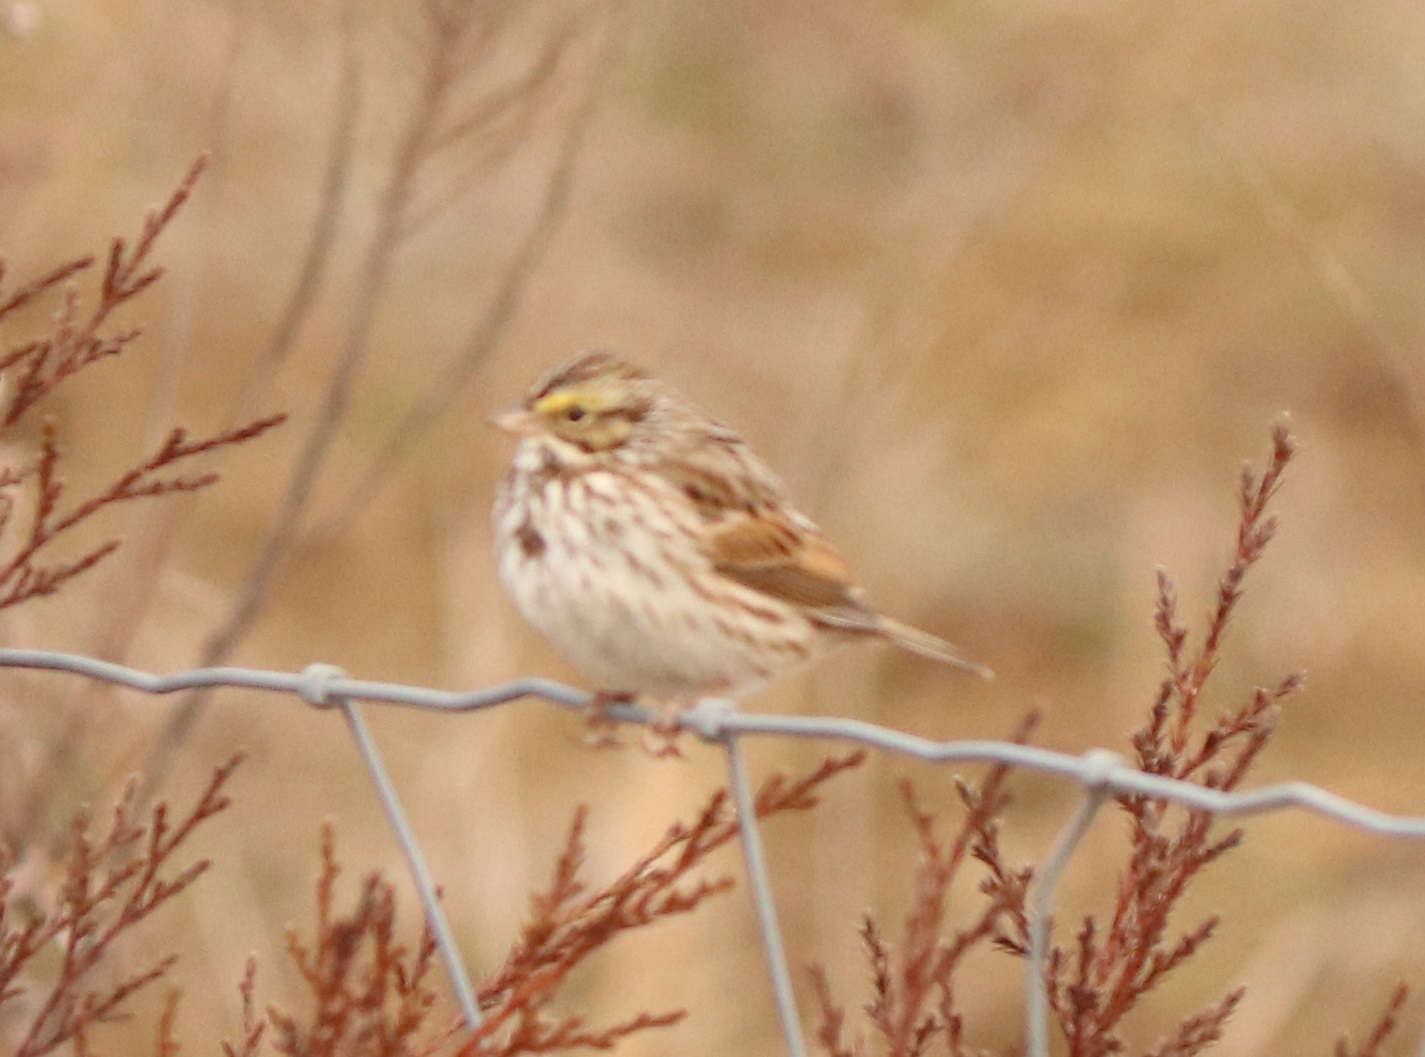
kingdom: Animalia
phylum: Chordata
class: Aves
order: Passeriformes
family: Passerellidae
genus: Passerculus
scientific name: Passerculus sandwichensis
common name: Savannah sparrow
